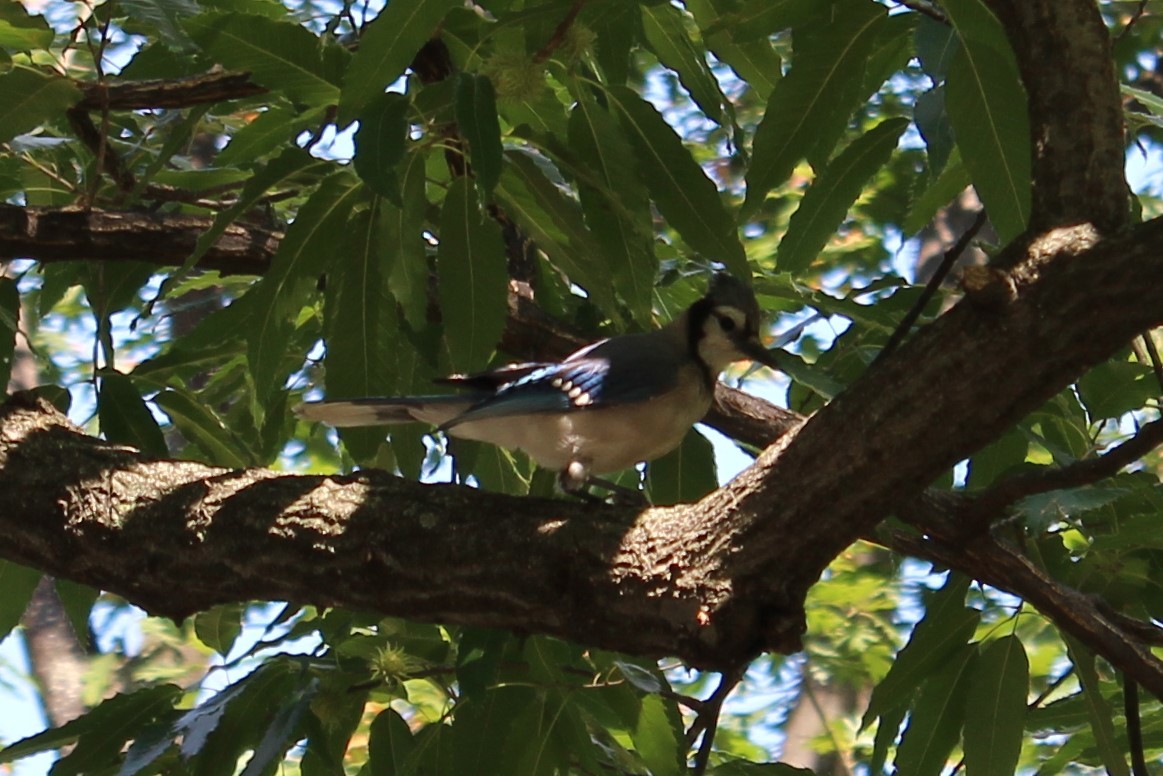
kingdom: Animalia
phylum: Chordata
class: Aves
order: Passeriformes
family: Corvidae
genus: Cyanocitta
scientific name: Cyanocitta cristata
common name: Blue jay
